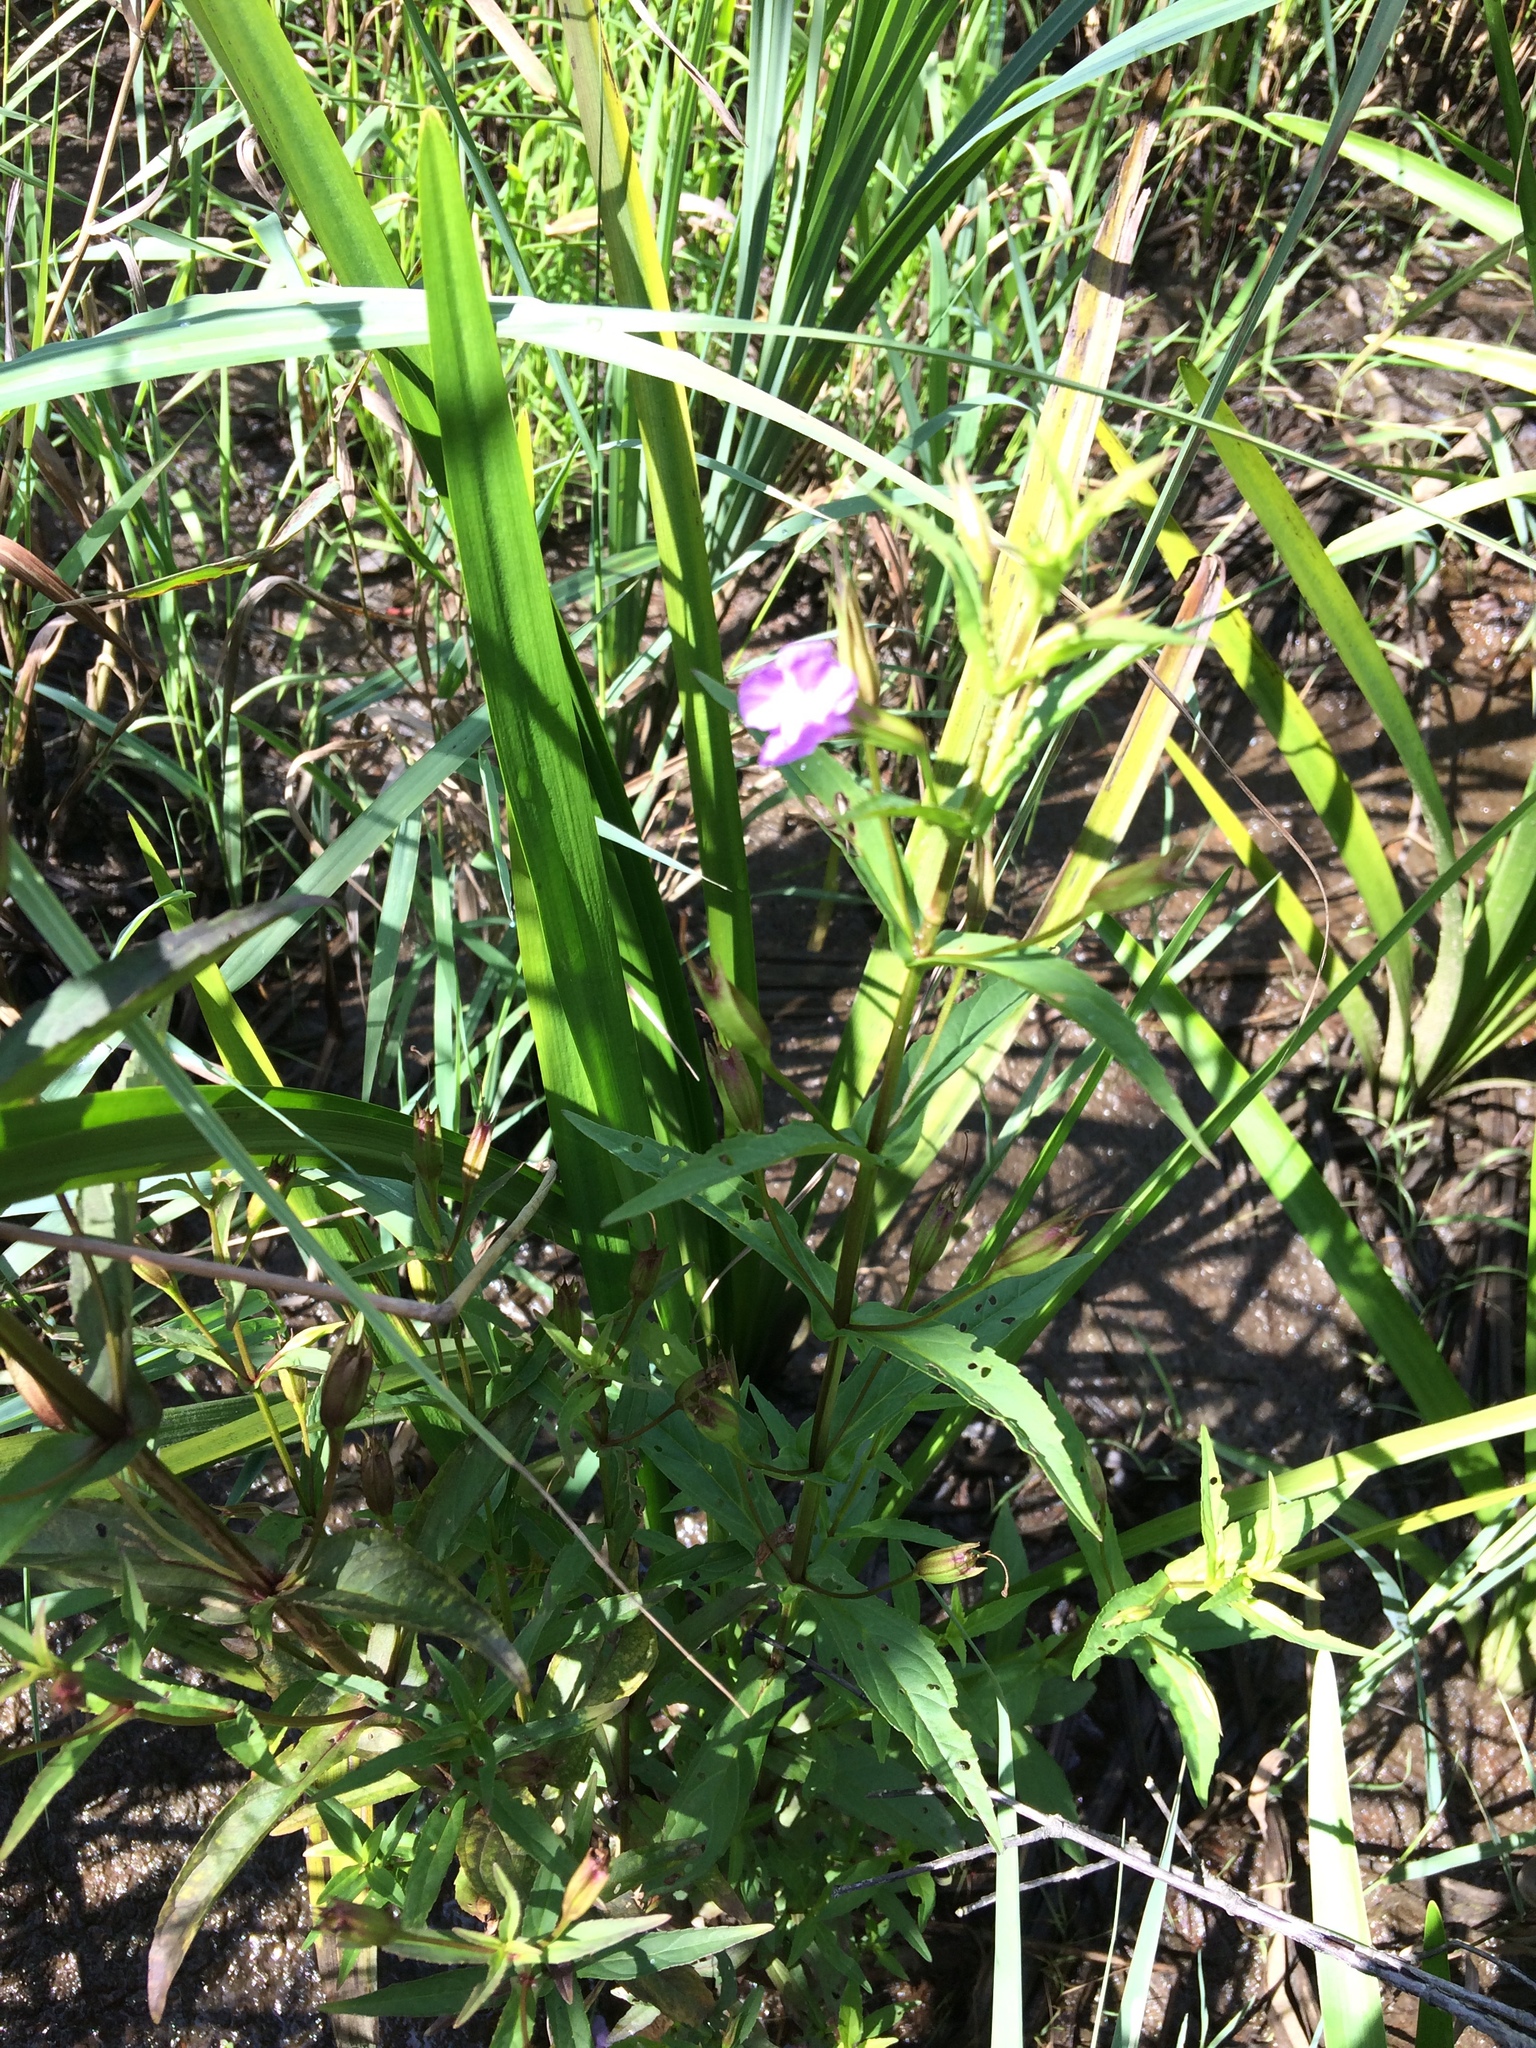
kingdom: Plantae
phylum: Tracheophyta
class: Magnoliopsida
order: Lamiales
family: Phrymaceae
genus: Mimulus
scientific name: Mimulus ringens
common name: Allegheny monkeyflower
